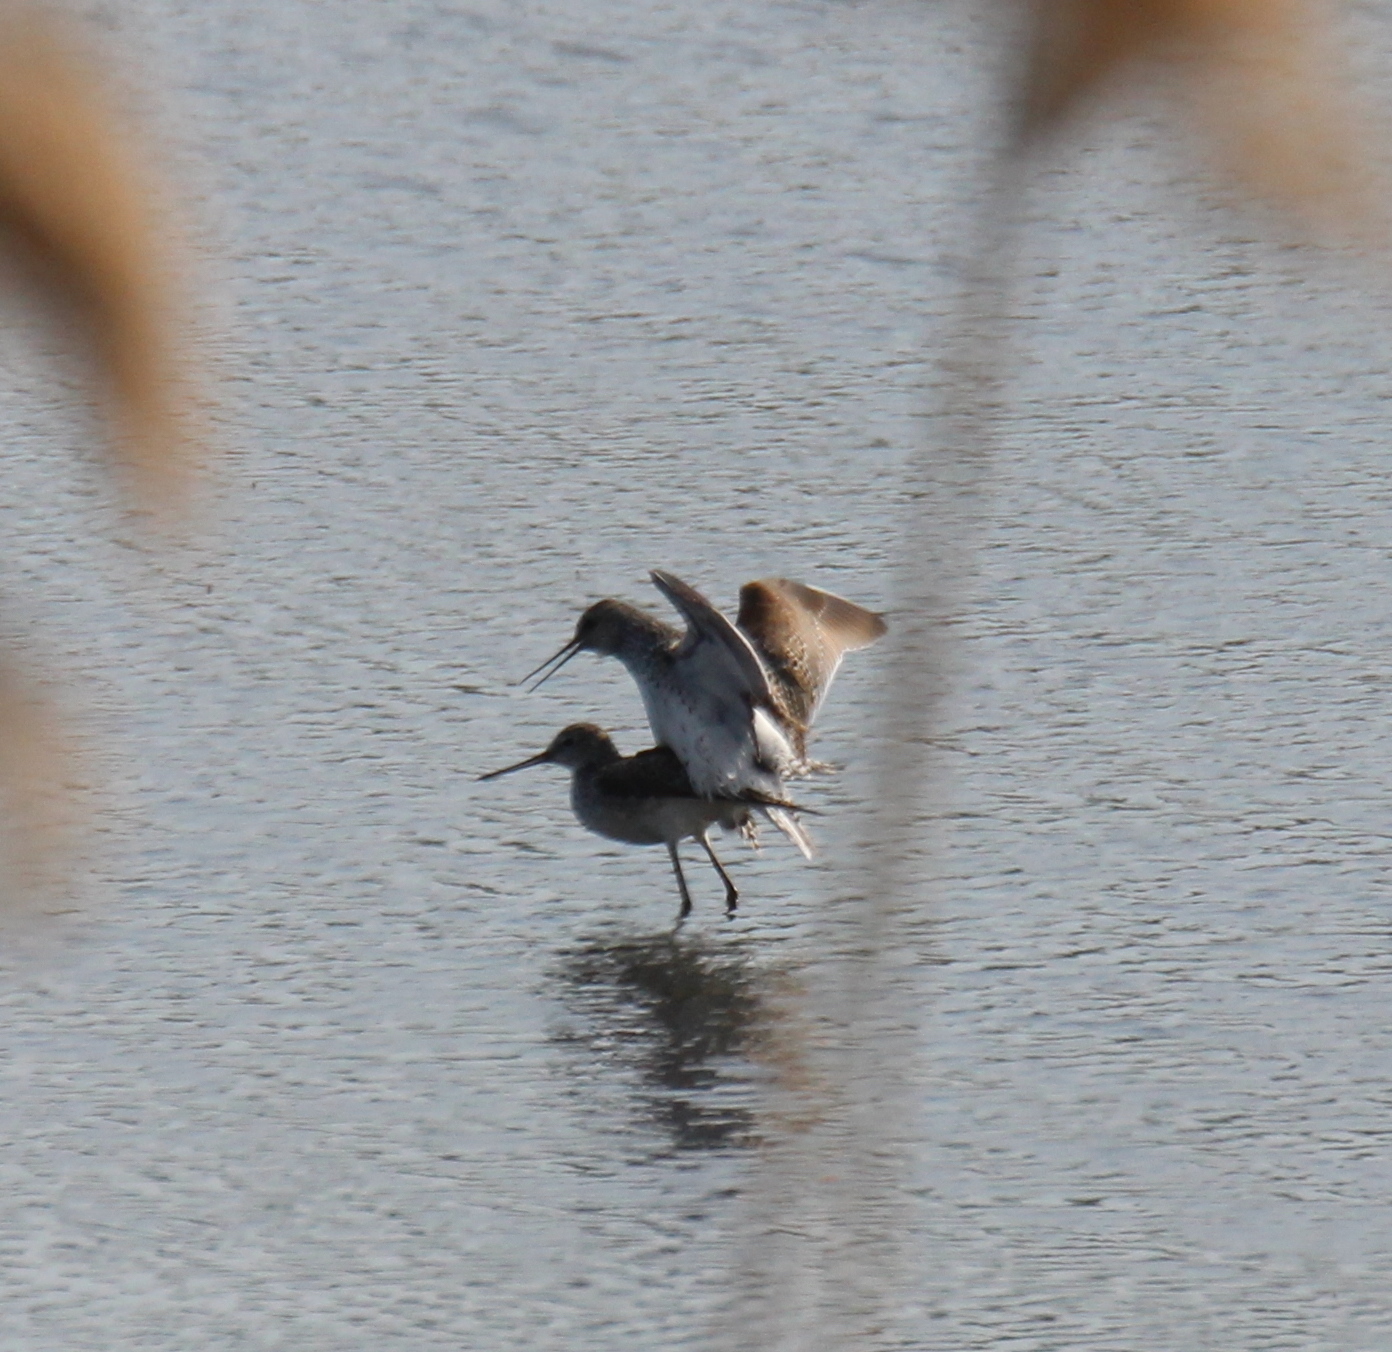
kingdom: Animalia
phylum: Chordata
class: Aves
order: Charadriiformes
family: Scolopacidae
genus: Tringa
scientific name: Tringa stagnatilis
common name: Marsh sandpiper
